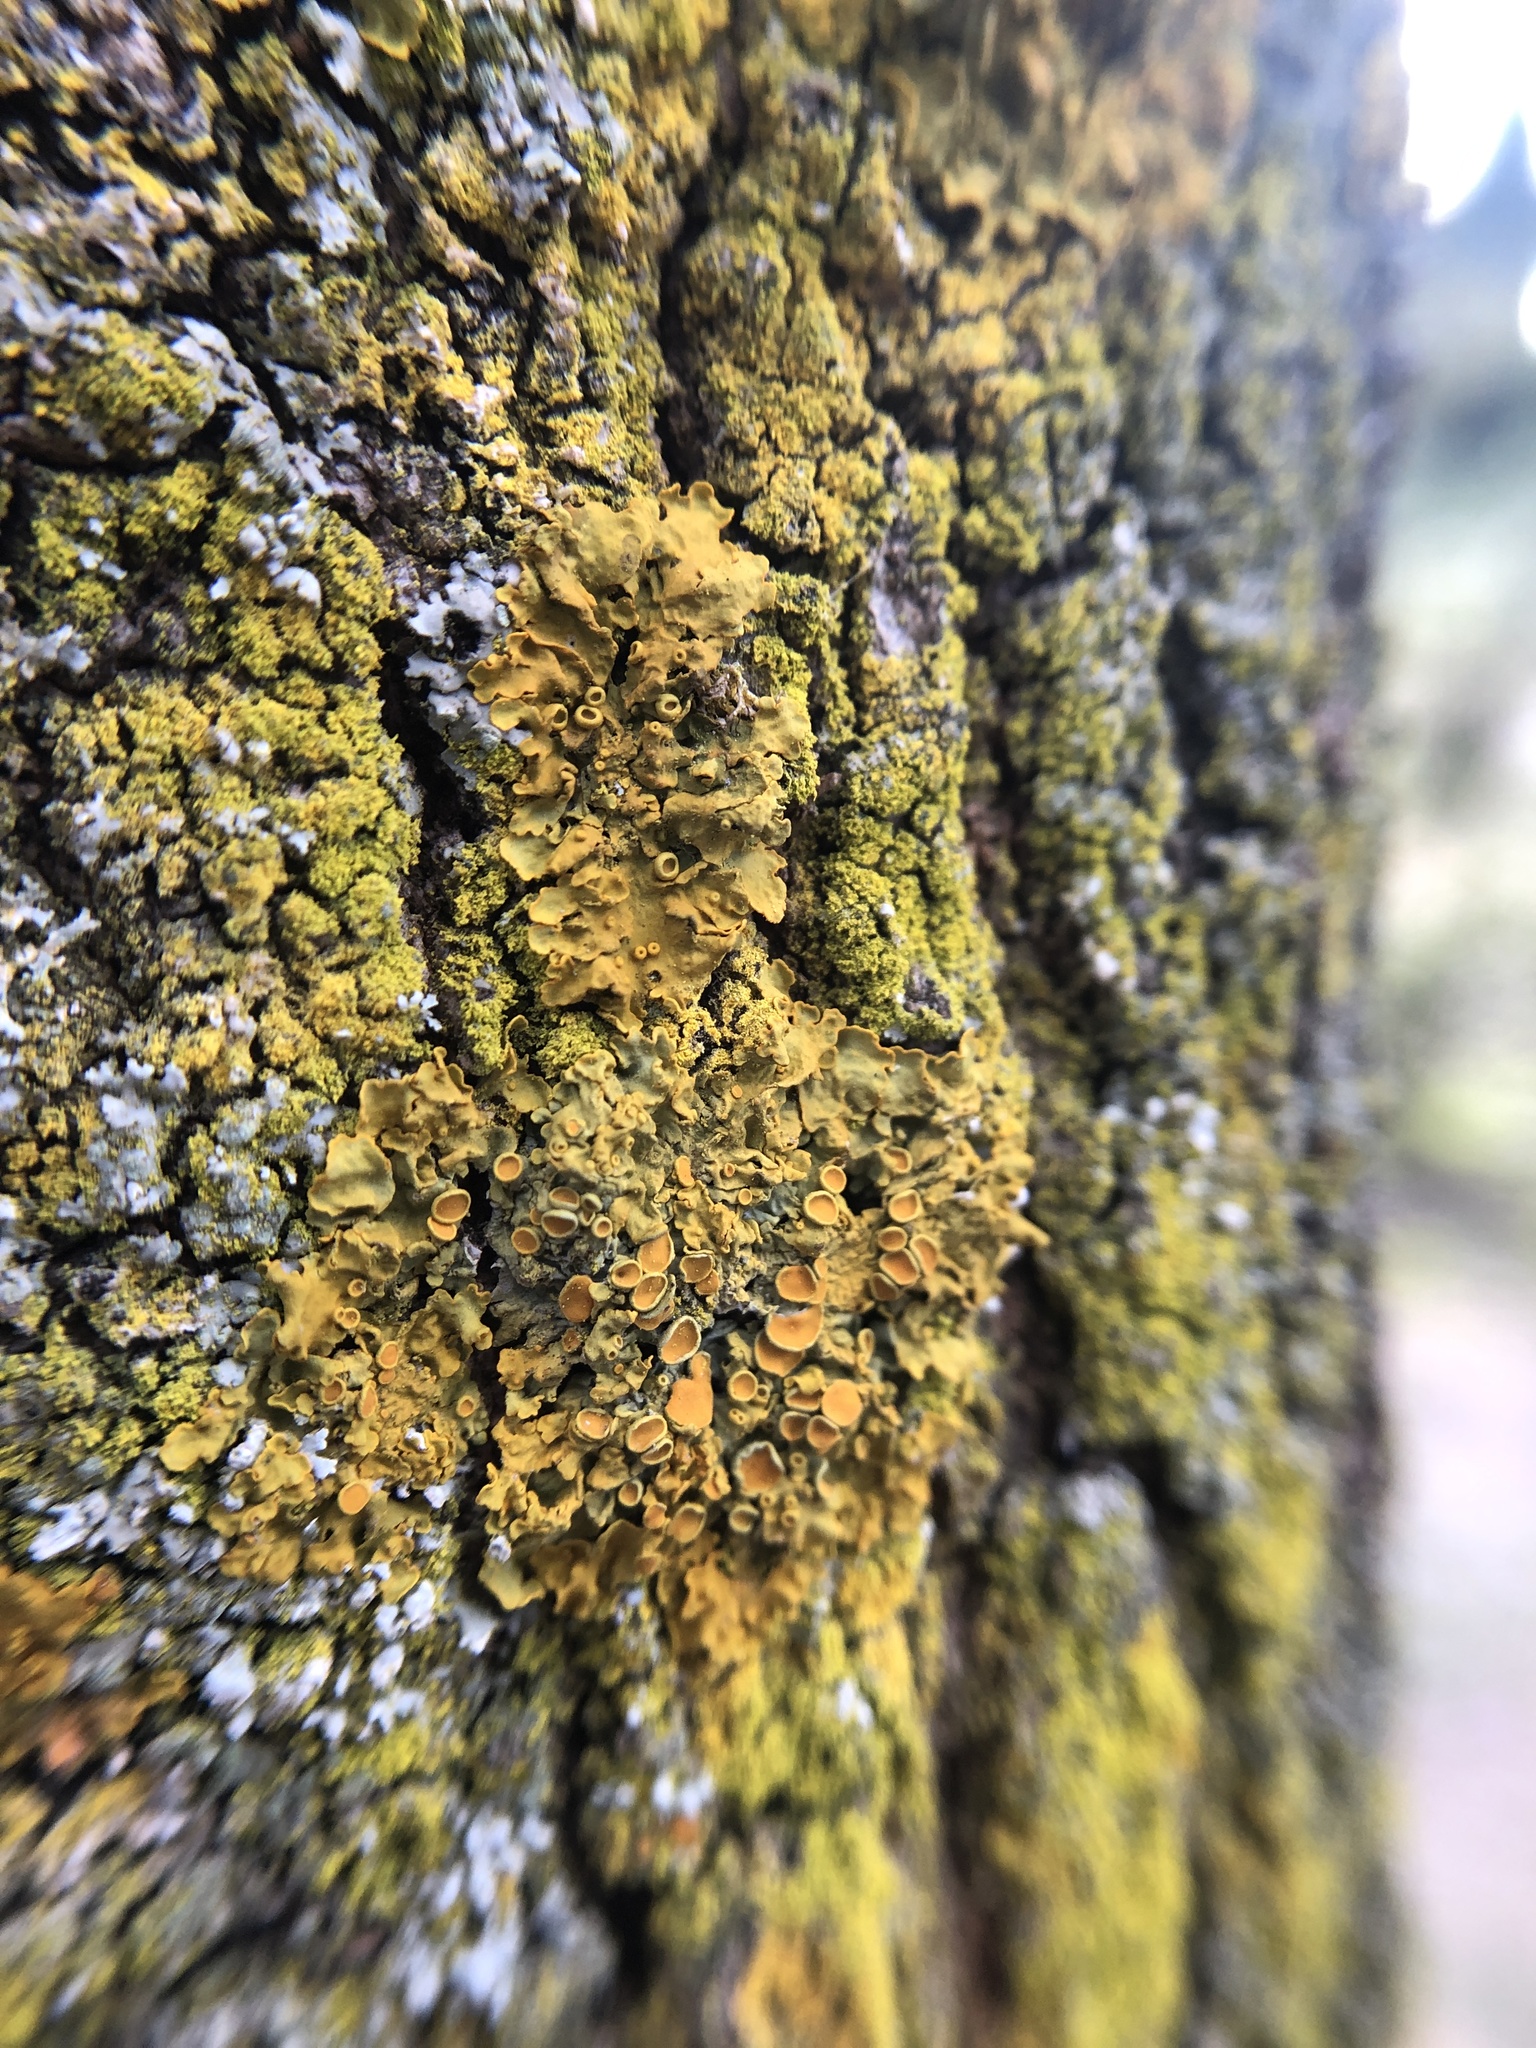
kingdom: Fungi
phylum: Ascomycota
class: Lecanoromycetes
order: Teloschistales
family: Teloschistaceae
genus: Xanthoria
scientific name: Xanthoria parietina
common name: Common orange lichen
